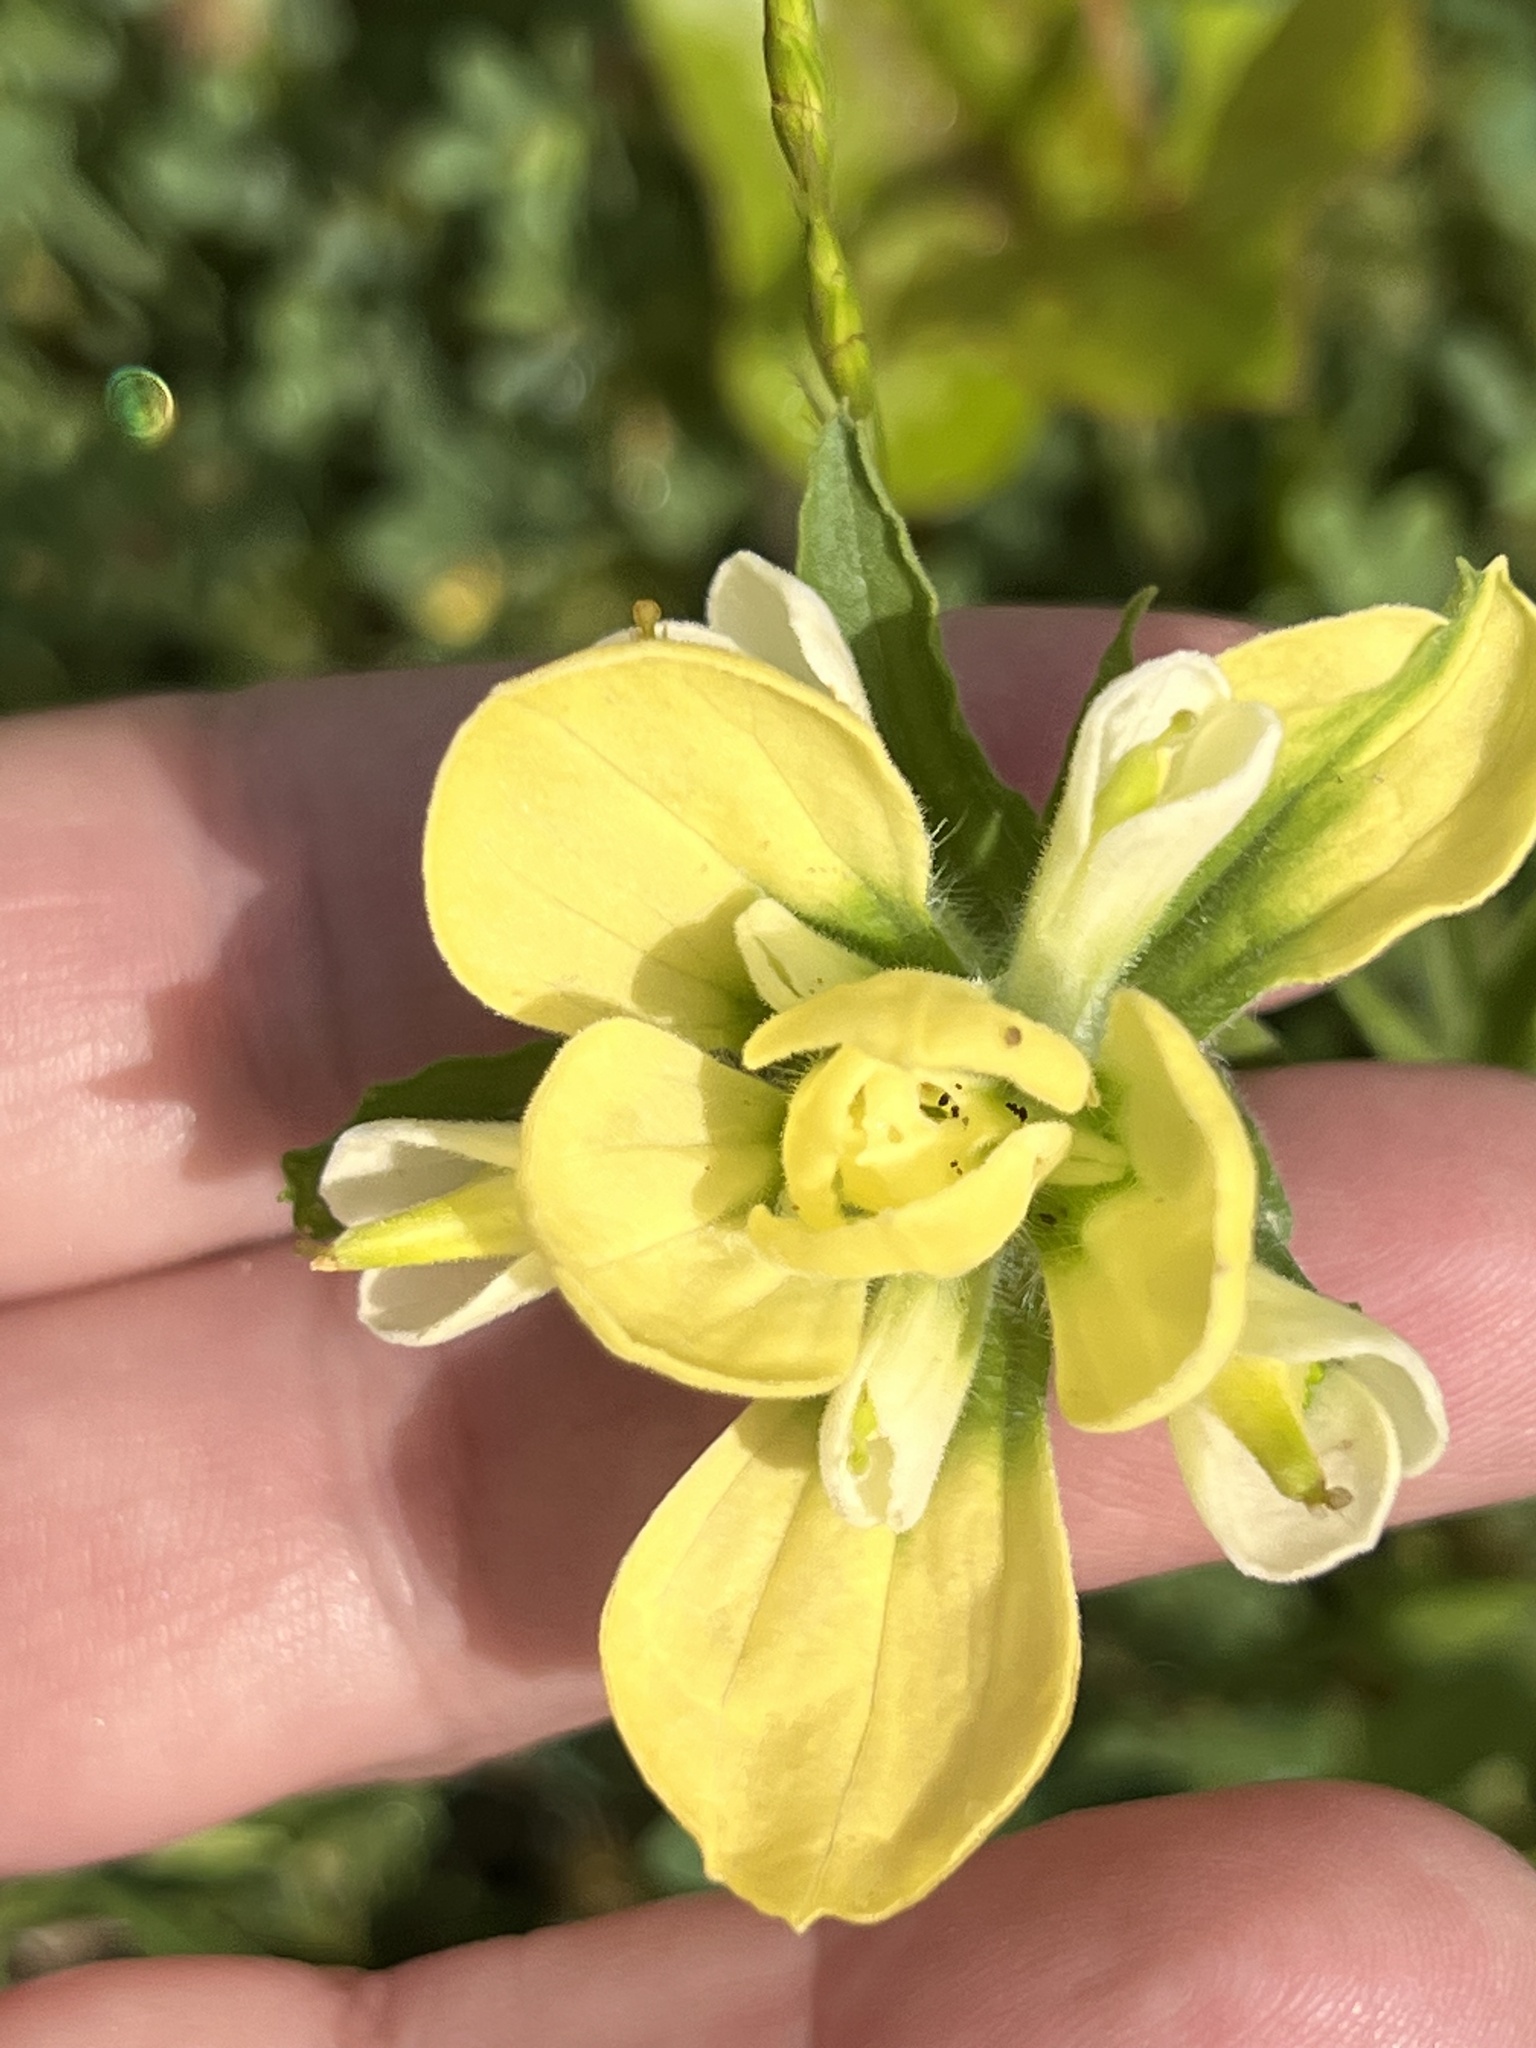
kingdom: Plantae
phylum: Tracheophyta
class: Magnoliopsida
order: Lamiales
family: Orobanchaceae
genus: Castilleja
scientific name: Castilleja indivisa
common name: Texas paintbrush
